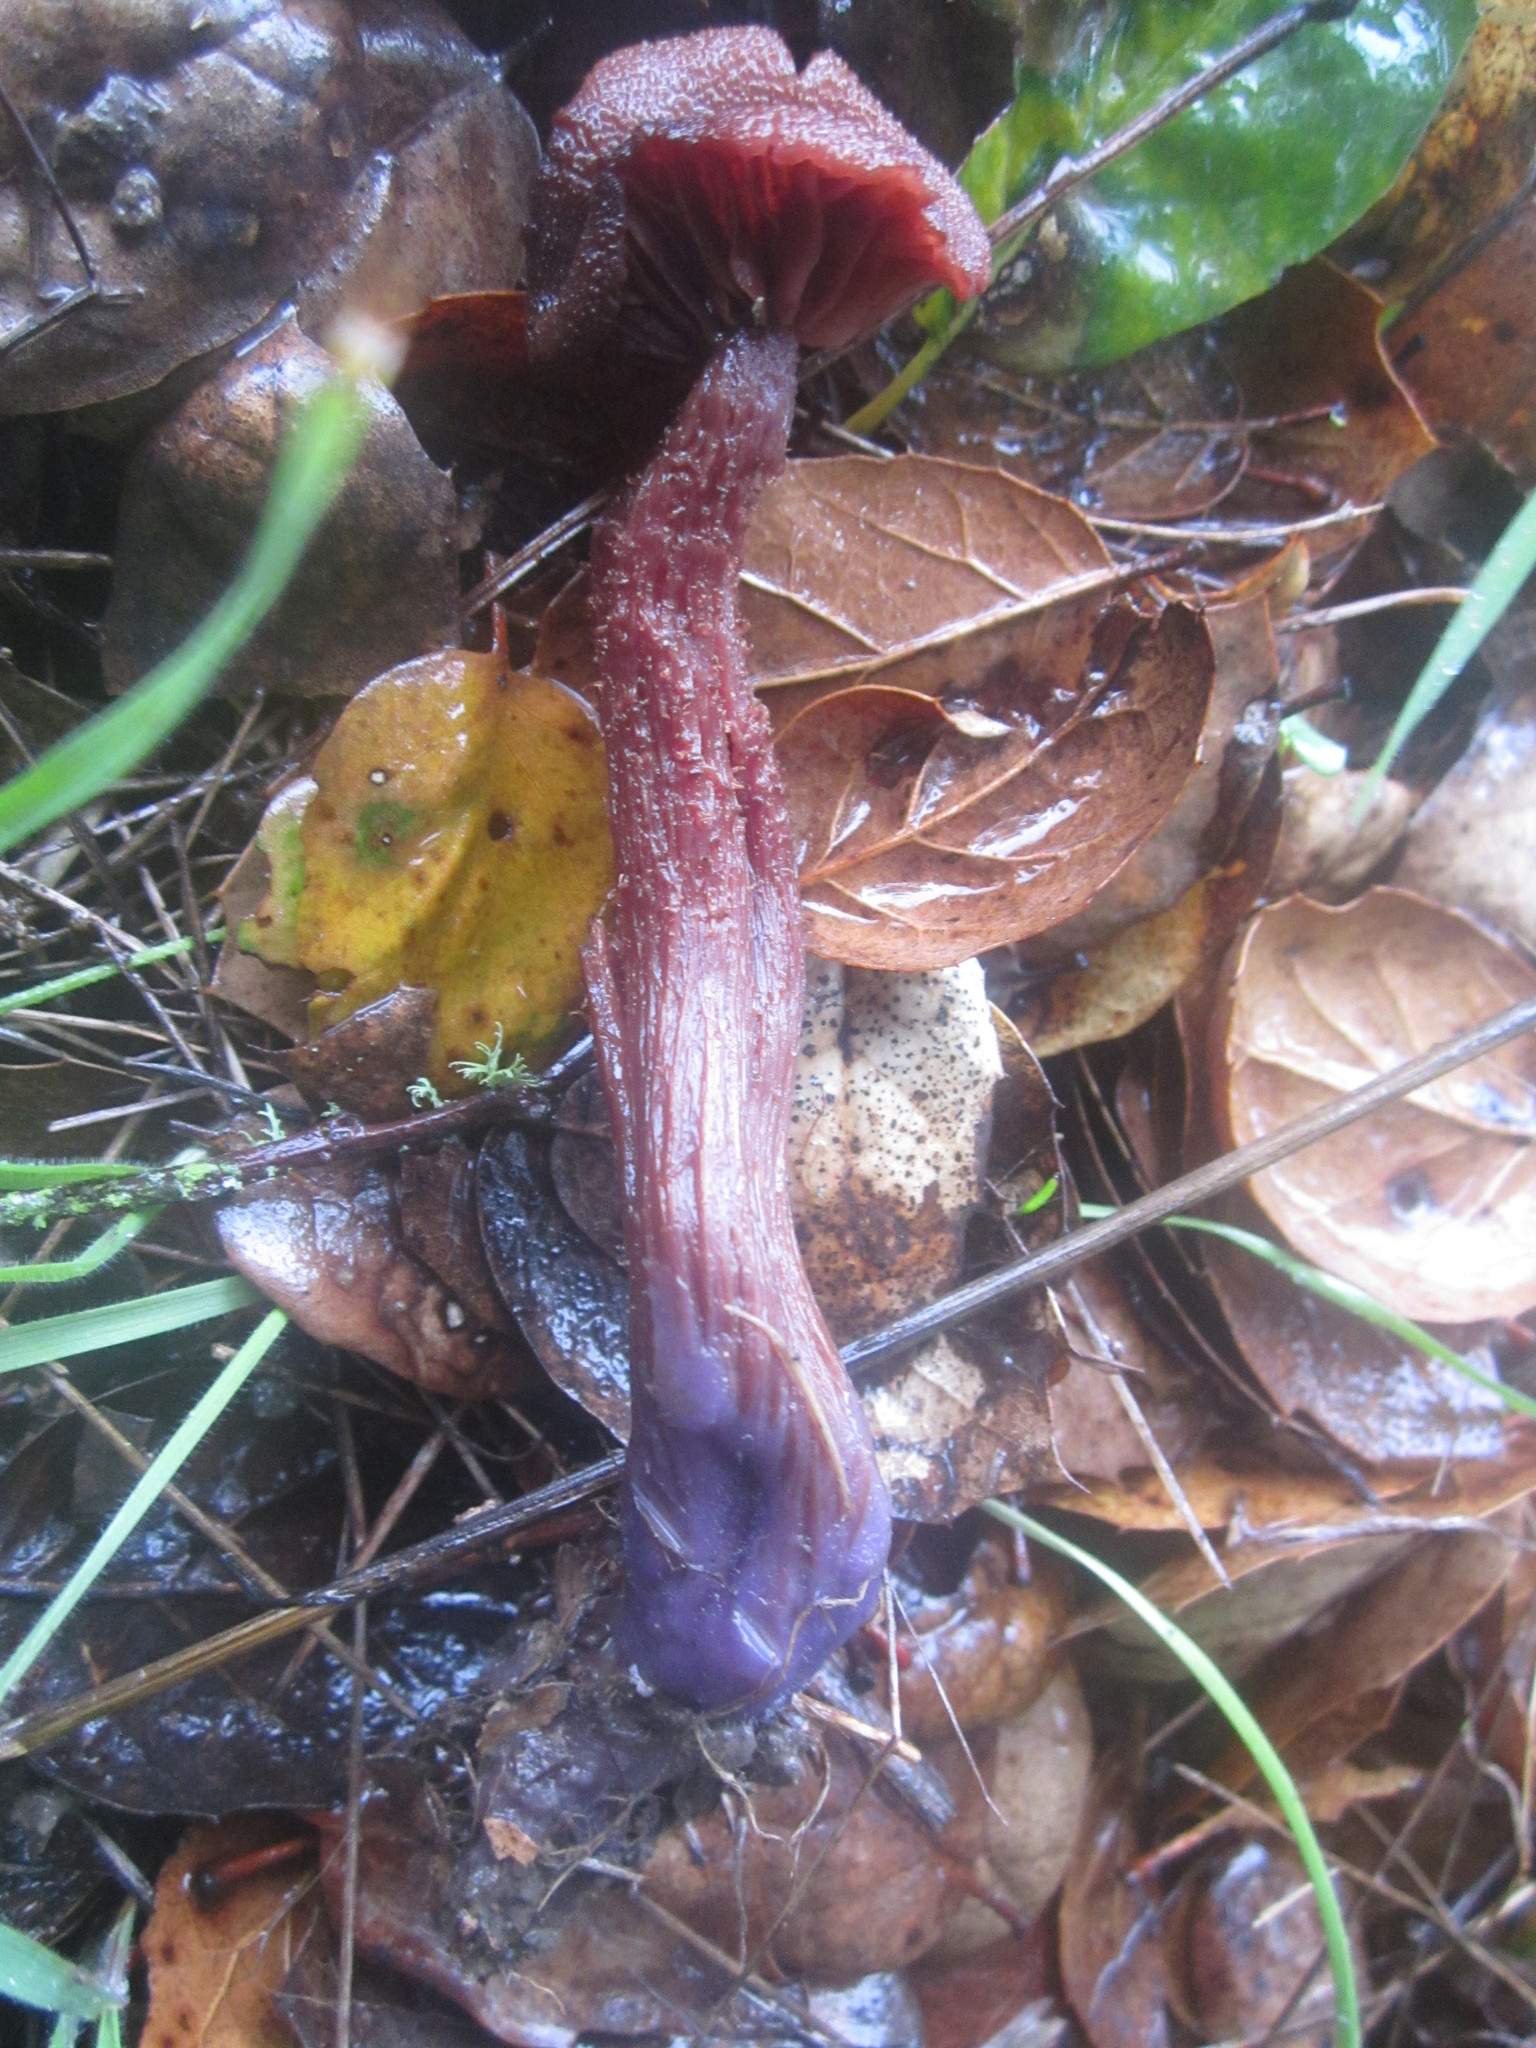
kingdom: Fungi
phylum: Basidiomycota
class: Agaricomycetes
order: Agaricales
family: Hydnangiaceae
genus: Laccaria
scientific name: Laccaria amethysteo-occidentalis
